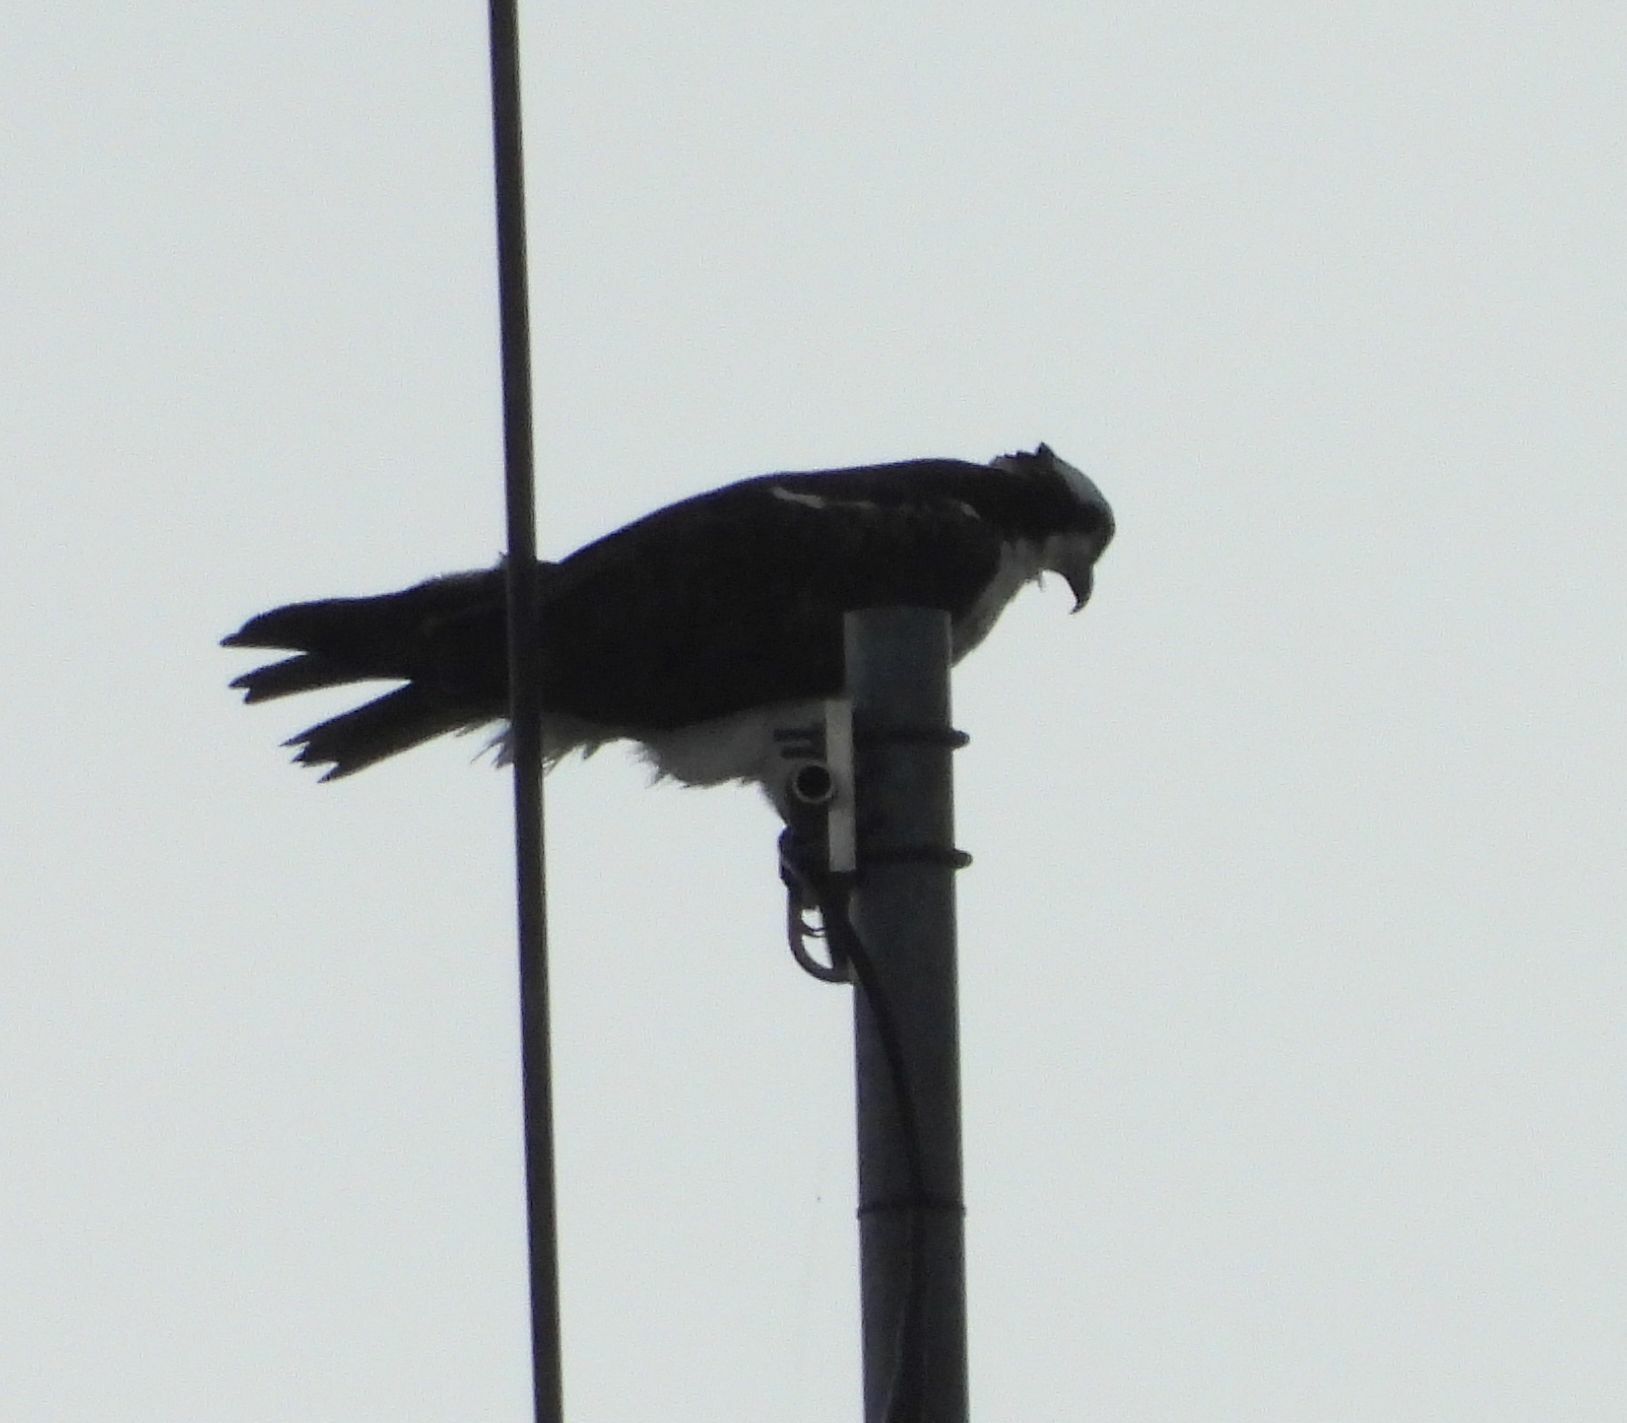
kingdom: Animalia
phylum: Chordata
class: Aves
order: Accipitriformes
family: Pandionidae
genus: Pandion
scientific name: Pandion haliaetus
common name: Osprey
